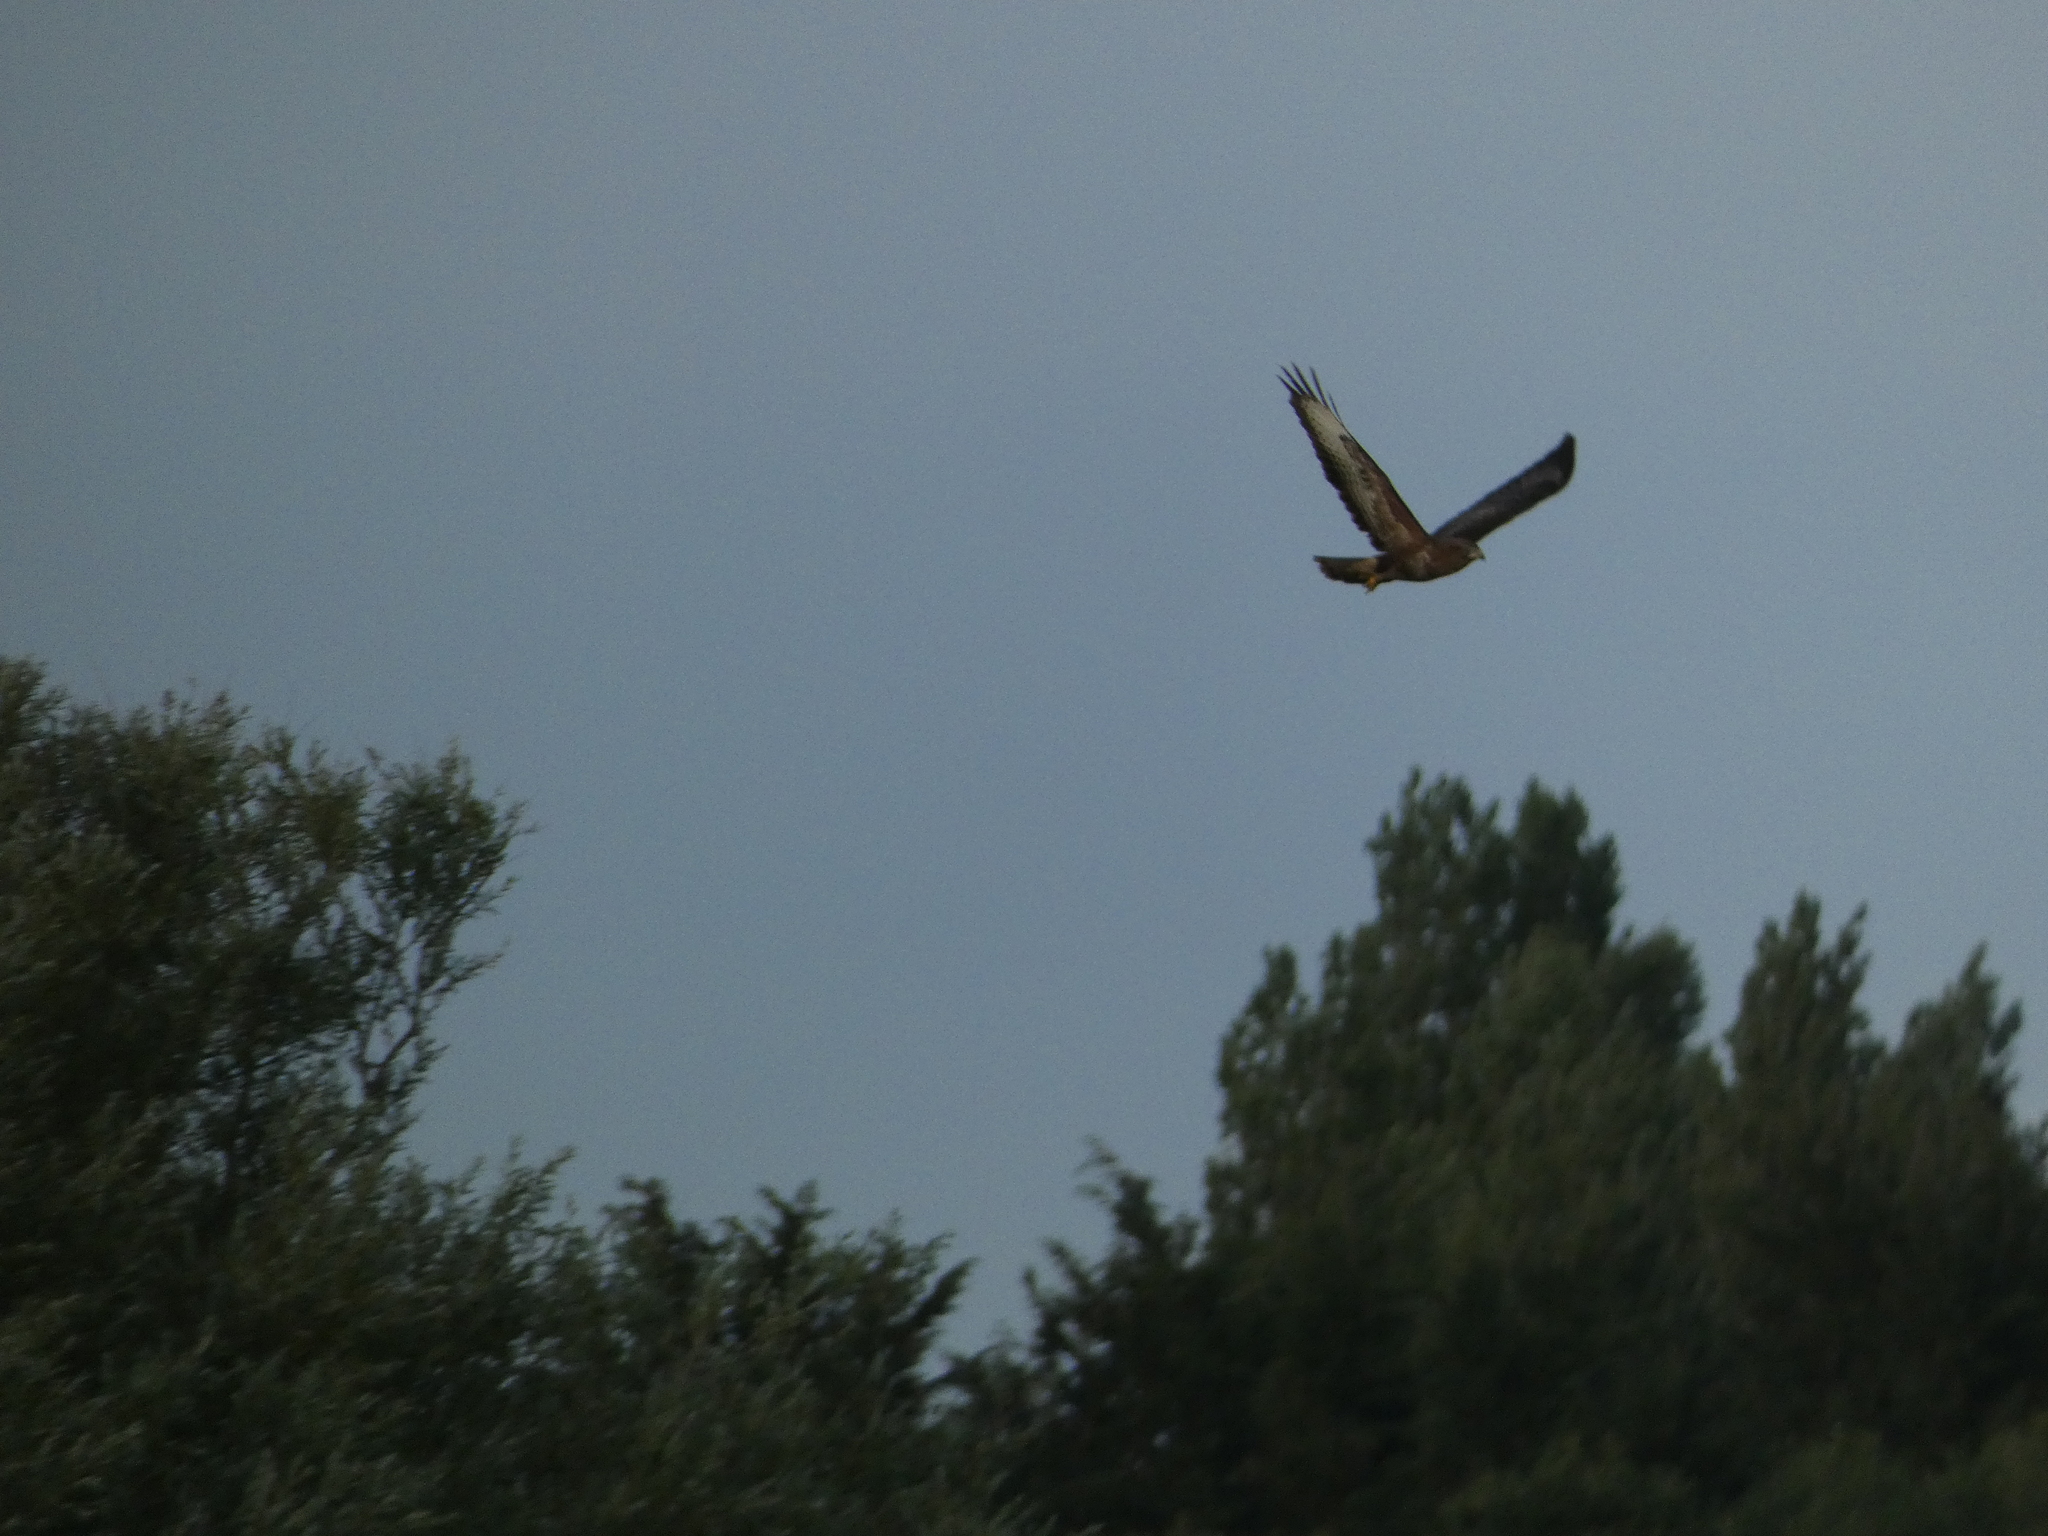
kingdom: Animalia
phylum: Chordata
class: Aves
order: Accipitriformes
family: Accipitridae
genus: Buteo
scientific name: Buteo buteo
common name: Common buzzard
